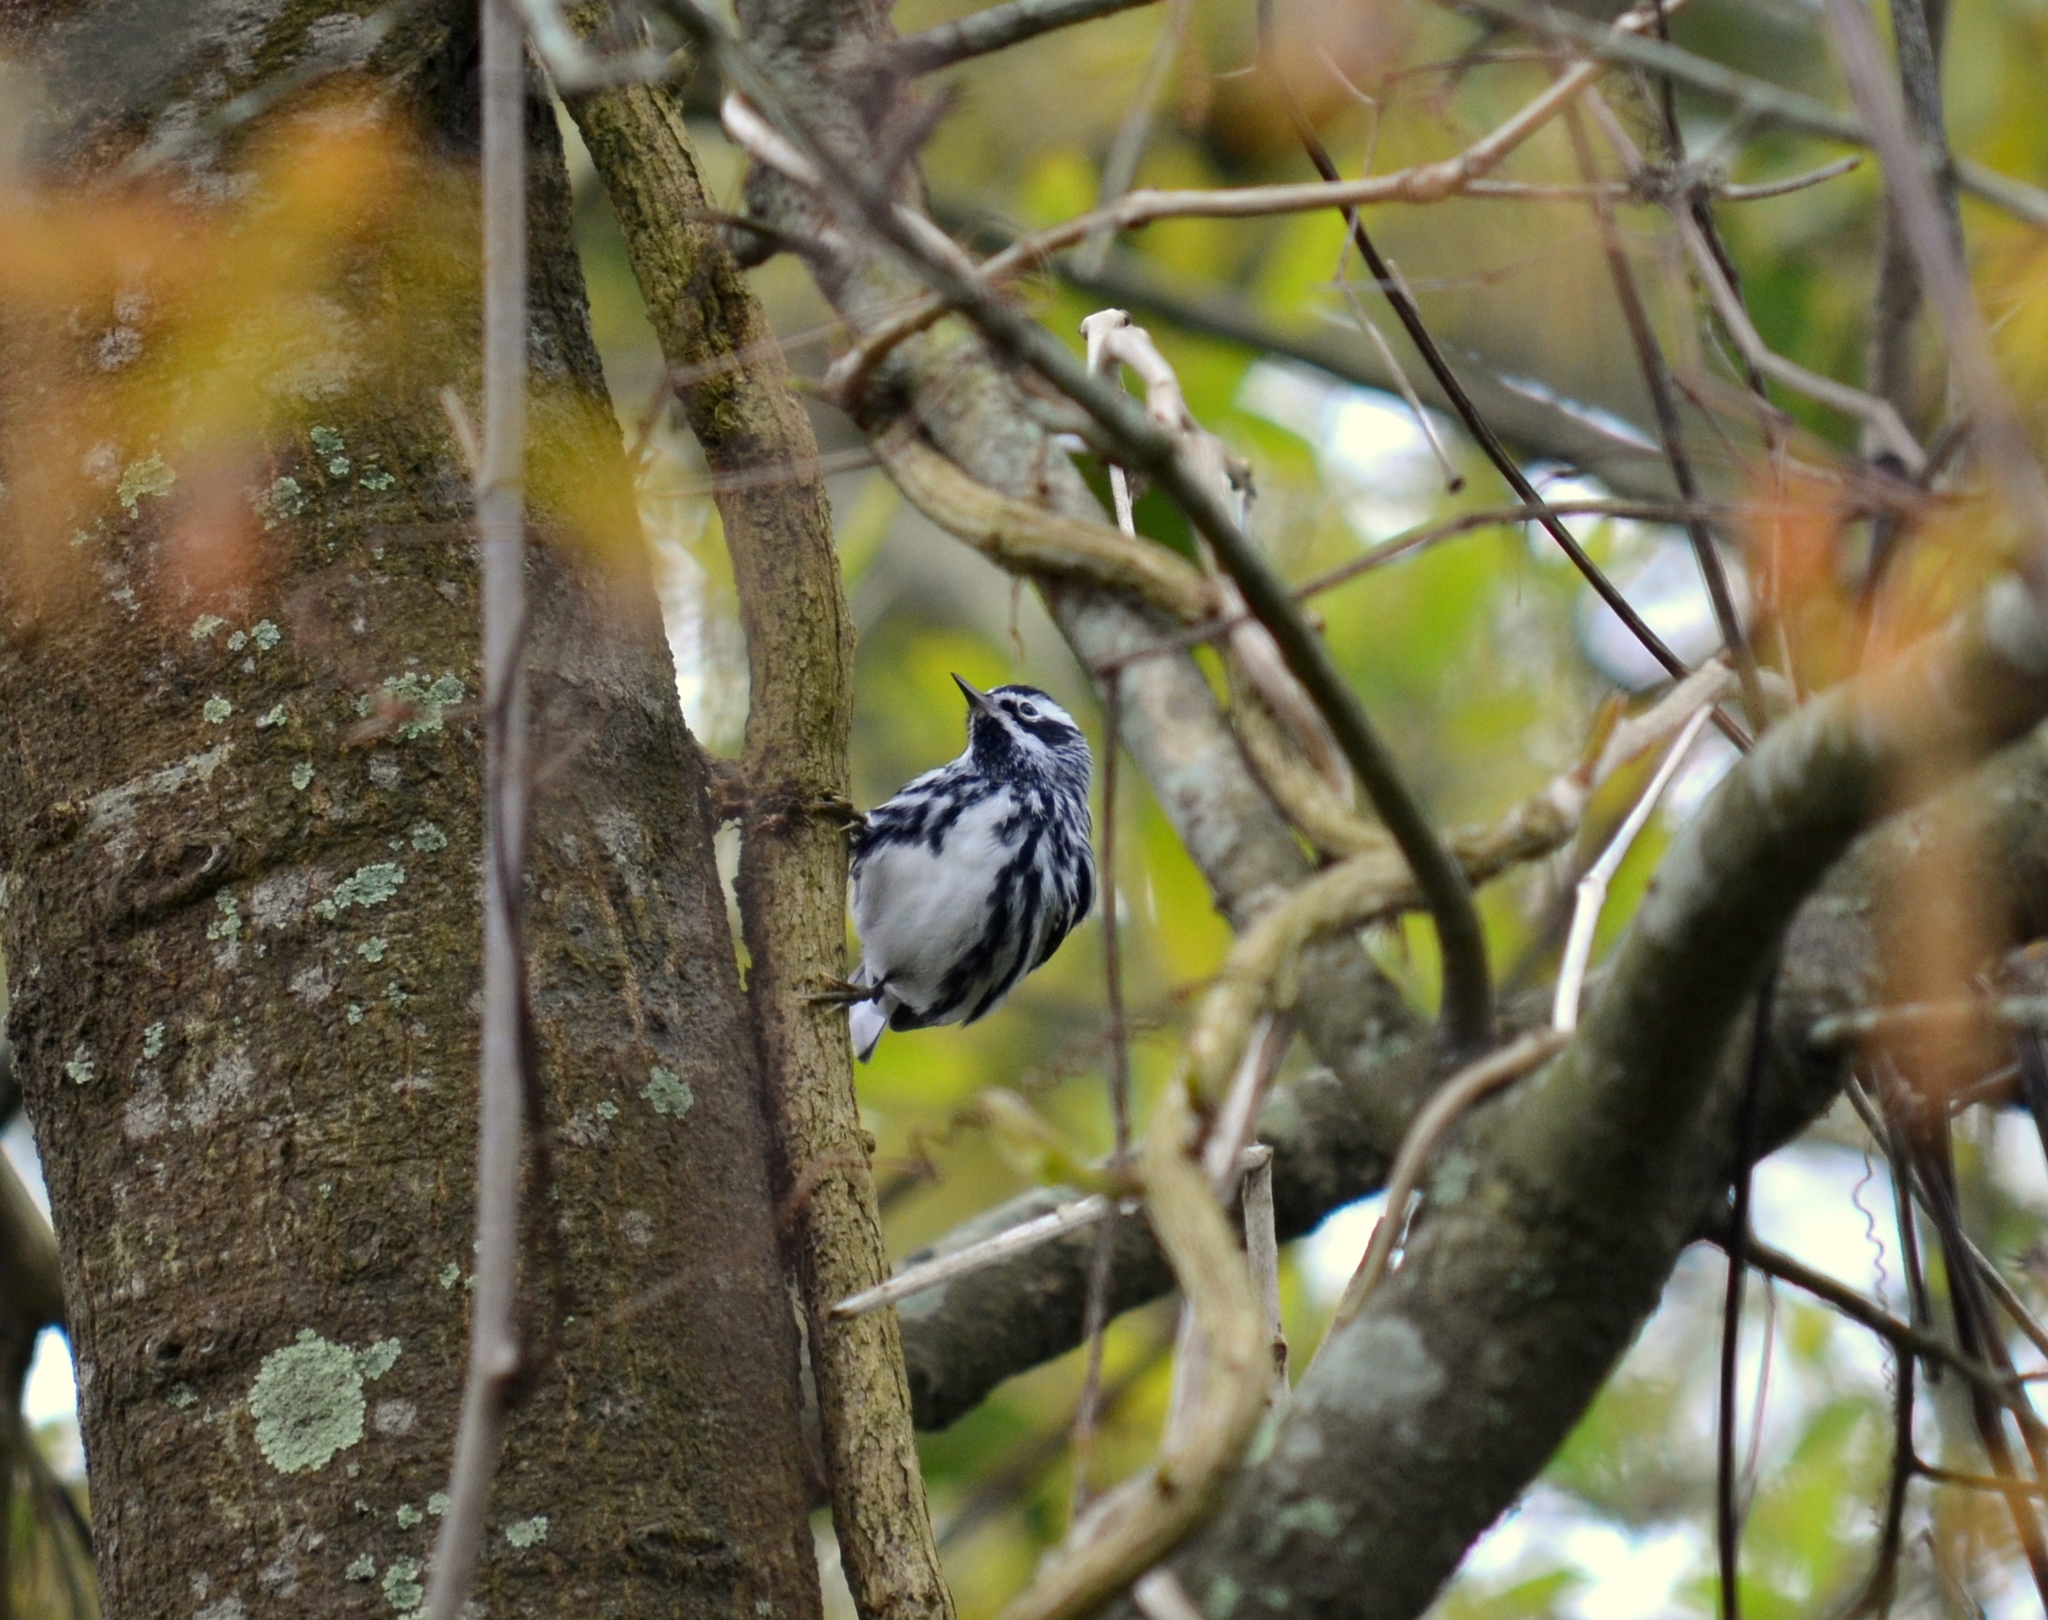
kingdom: Animalia
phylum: Chordata
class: Aves
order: Passeriformes
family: Parulidae
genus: Mniotilta
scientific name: Mniotilta varia
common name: Black-and-white warbler
